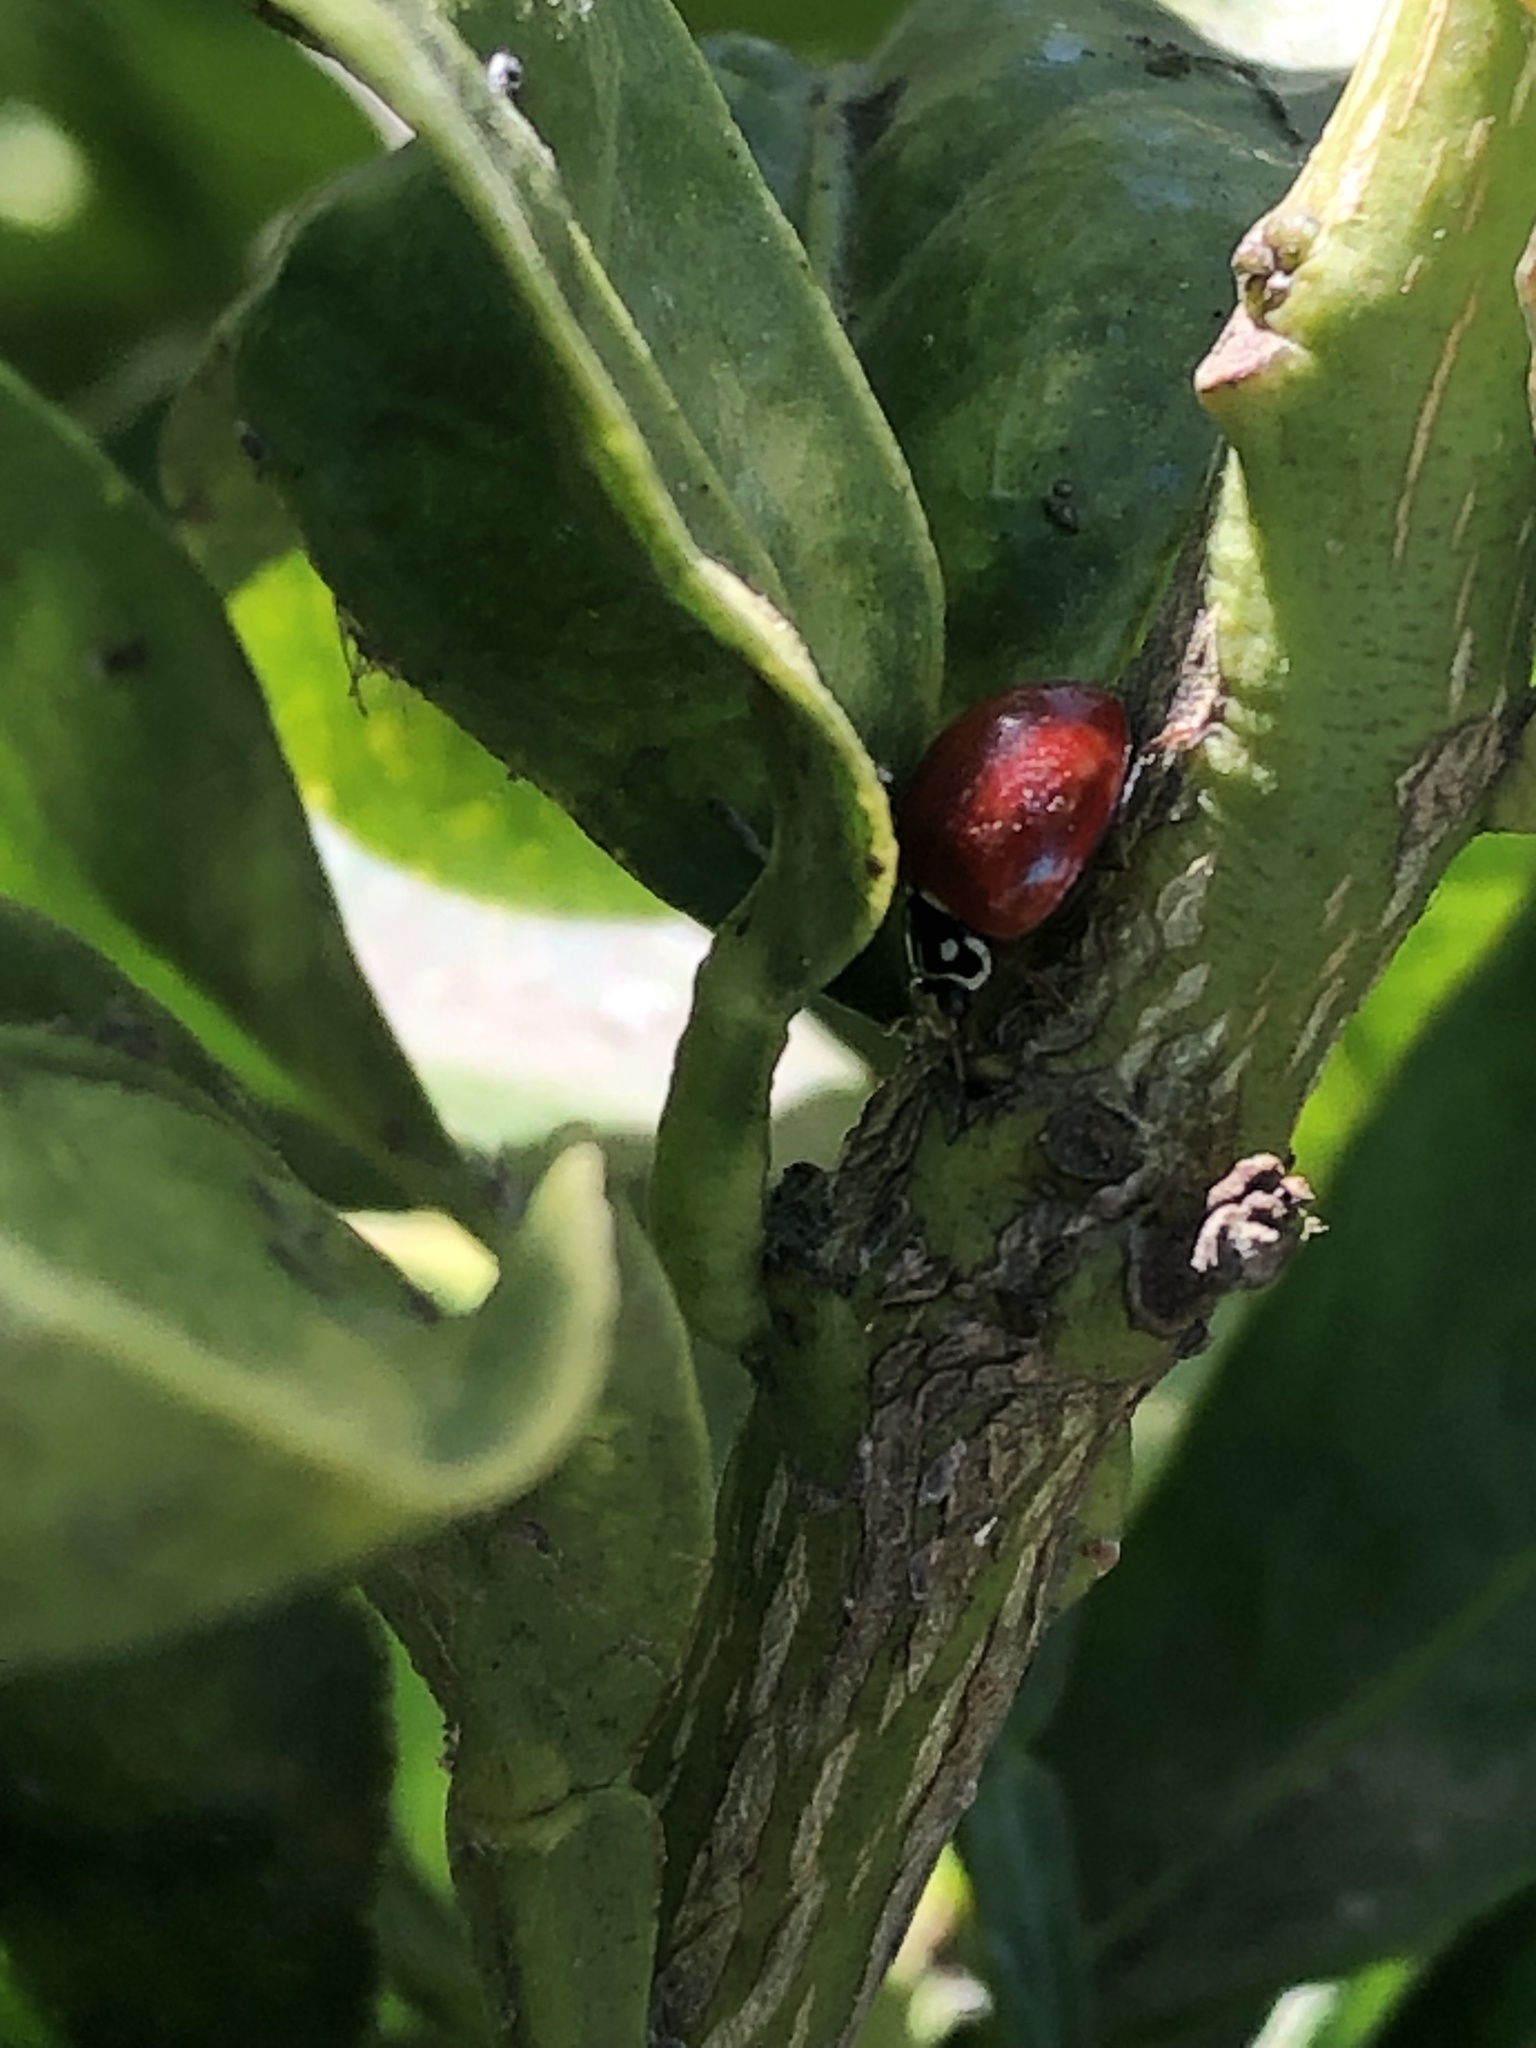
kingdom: Animalia
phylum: Arthropoda
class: Insecta
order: Coleoptera
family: Coccinellidae
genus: Cycloneda
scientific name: Cycloneda sanguinea
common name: Ladybird beetle
